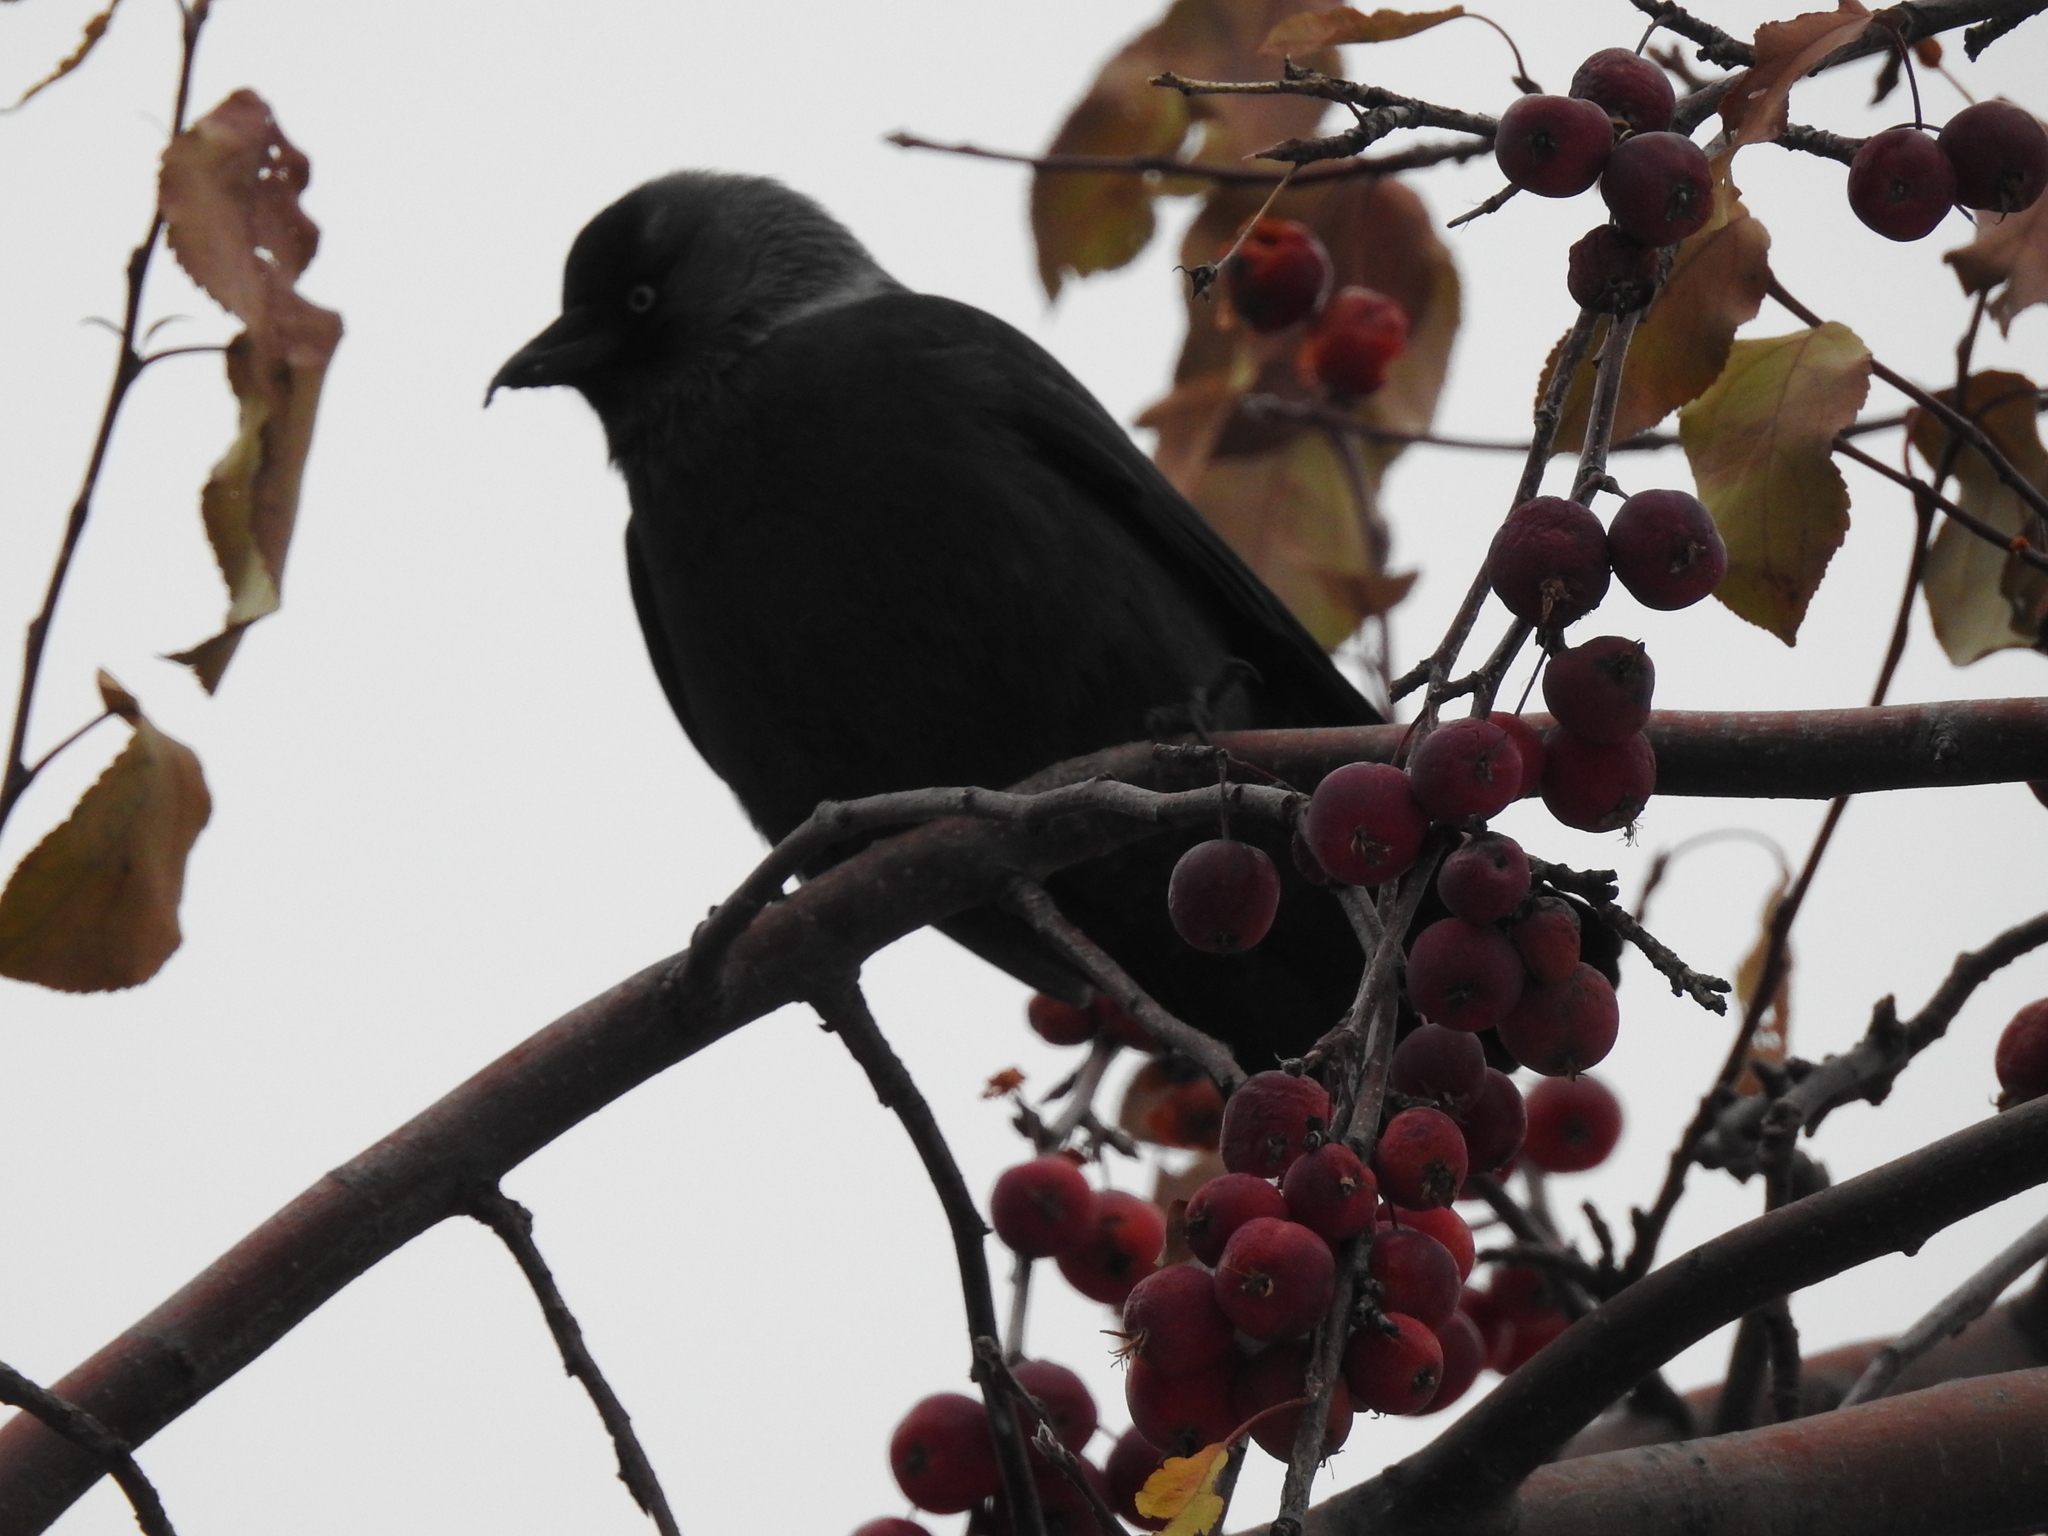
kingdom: Animalia
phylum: Chordata
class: Aves
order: Passeriformes
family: Corvidae
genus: Coloeus
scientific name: Coloeus monedula
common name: Western jackdaw
